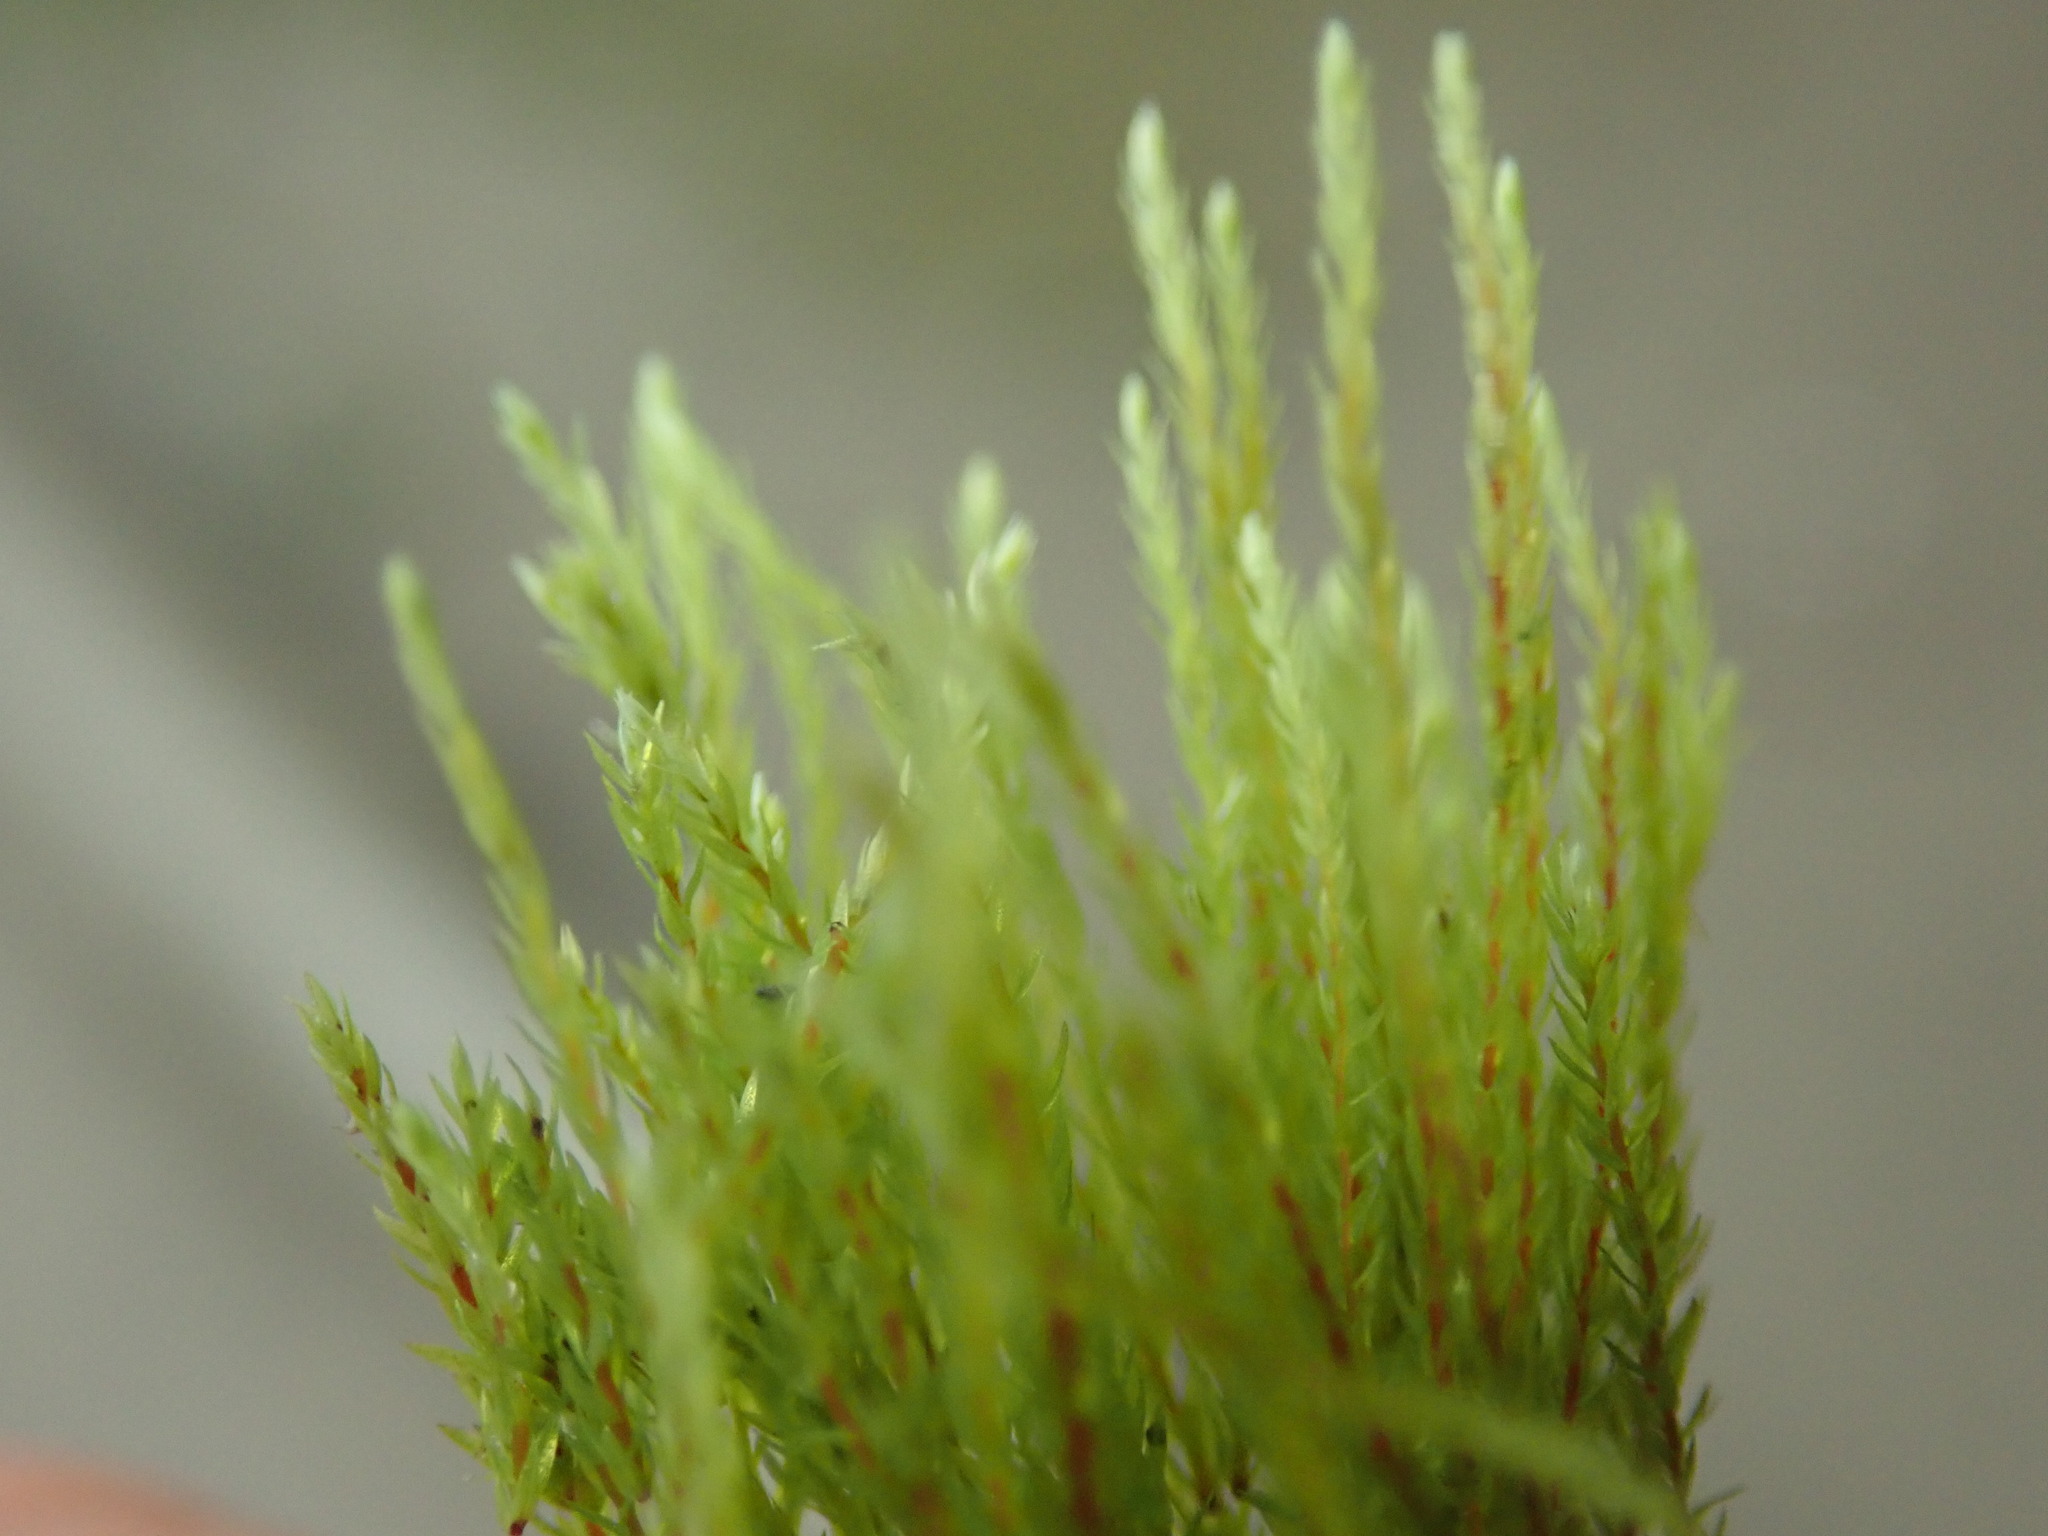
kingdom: Plantae
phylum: Bryophyta
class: Bryopsida
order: Bartramiales
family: Bartramiaceae
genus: Philonotis
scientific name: Philonotis fontana
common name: Fountain apple-moss
